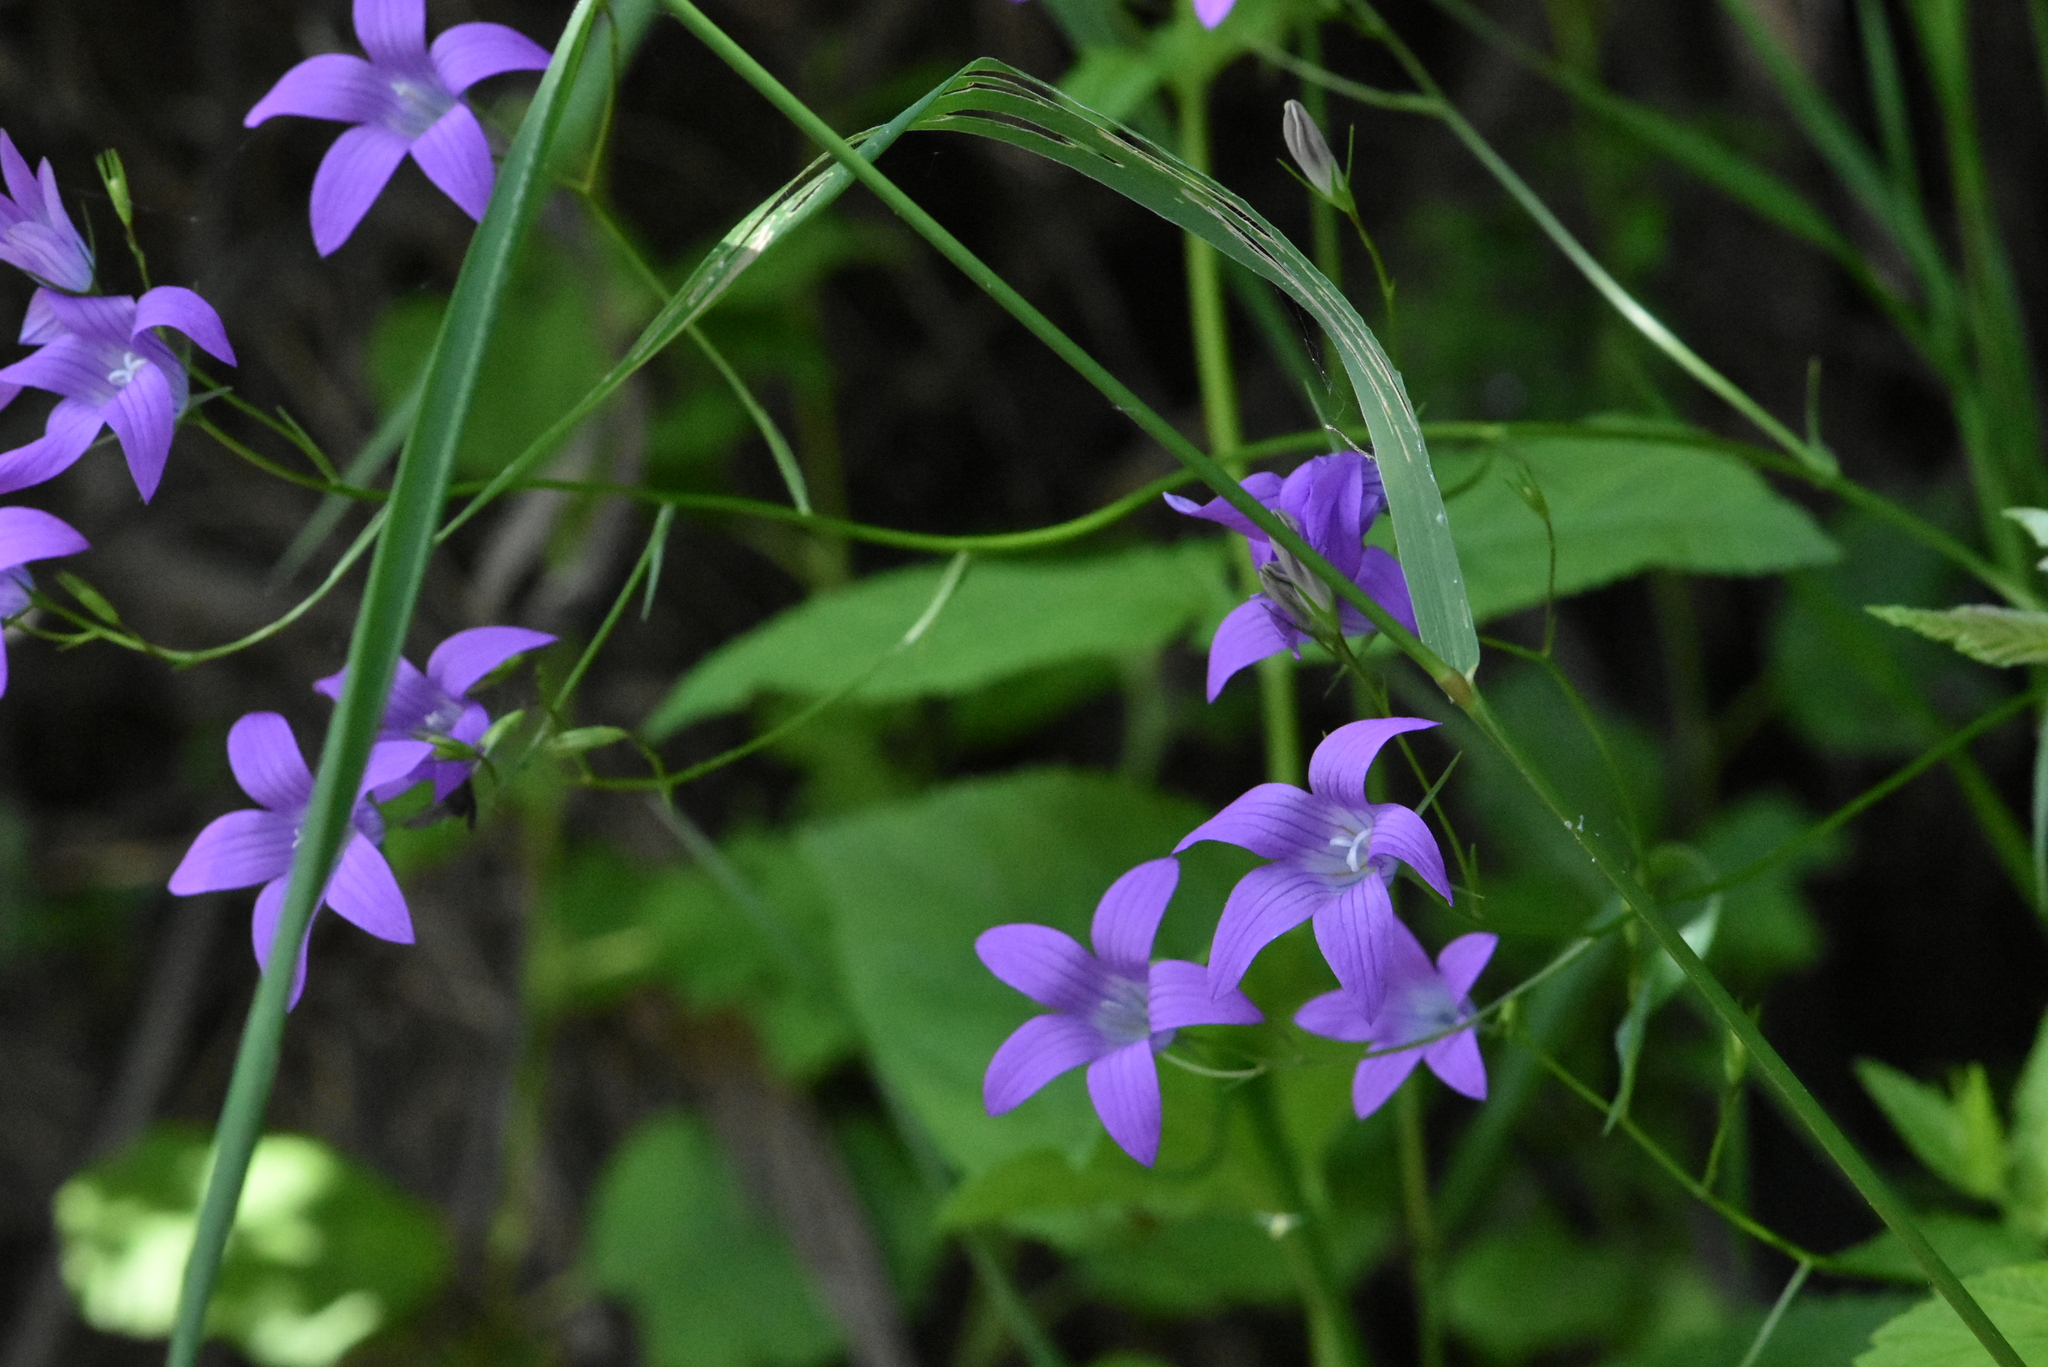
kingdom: Plantae
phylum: Tracheophyta
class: Magnoliopsida
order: Asterales
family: Campanulaceae
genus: Campanula
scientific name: Campanula patula
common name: Spreading bellflower
